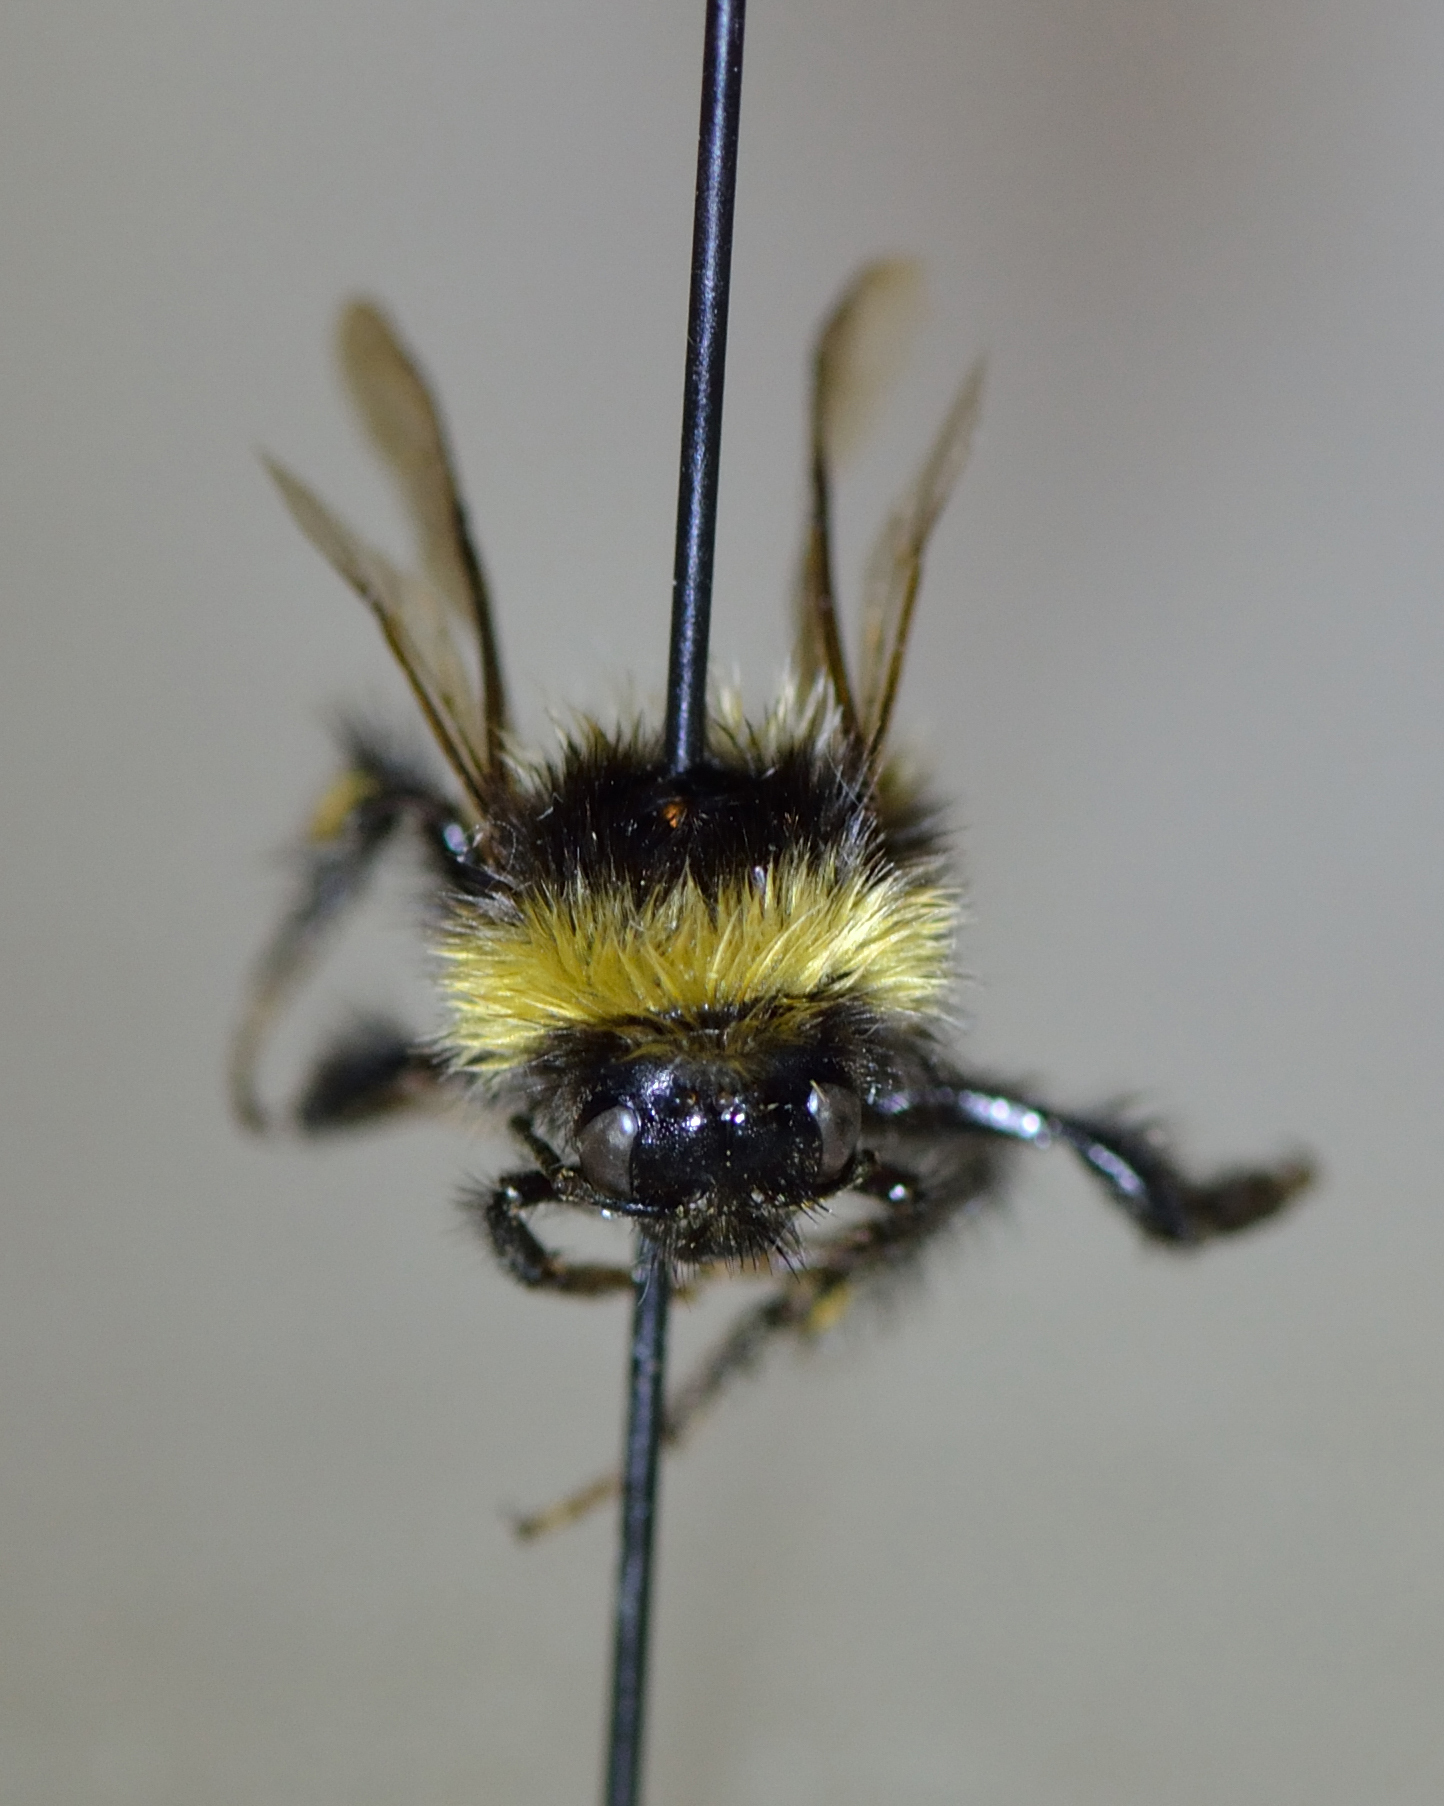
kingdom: Animalia
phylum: Arthropoda
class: Insecta
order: Hymenoptera
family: Apidae
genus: Bombus
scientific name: Bombus jonellus
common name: Heath humble-bee
